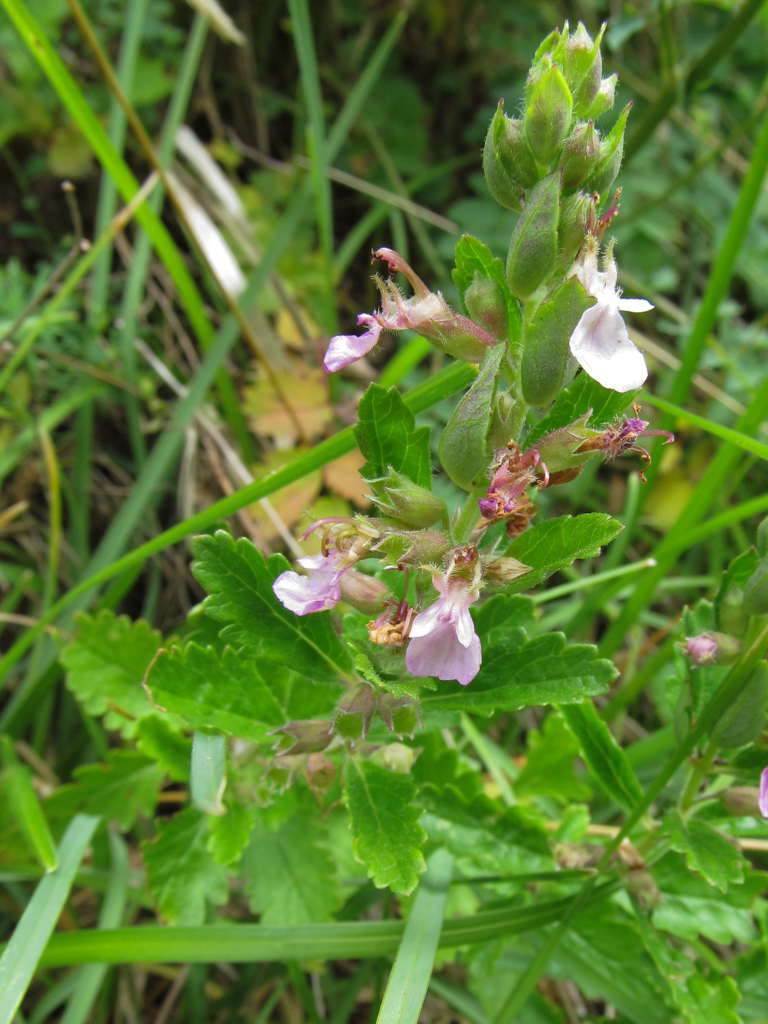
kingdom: Plantae
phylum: Tracheophyta
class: Magnoliopsida
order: Lamiales
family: Lamiaceae
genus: Teucrium
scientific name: Teucrium chamaedrys
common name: Wall germander
